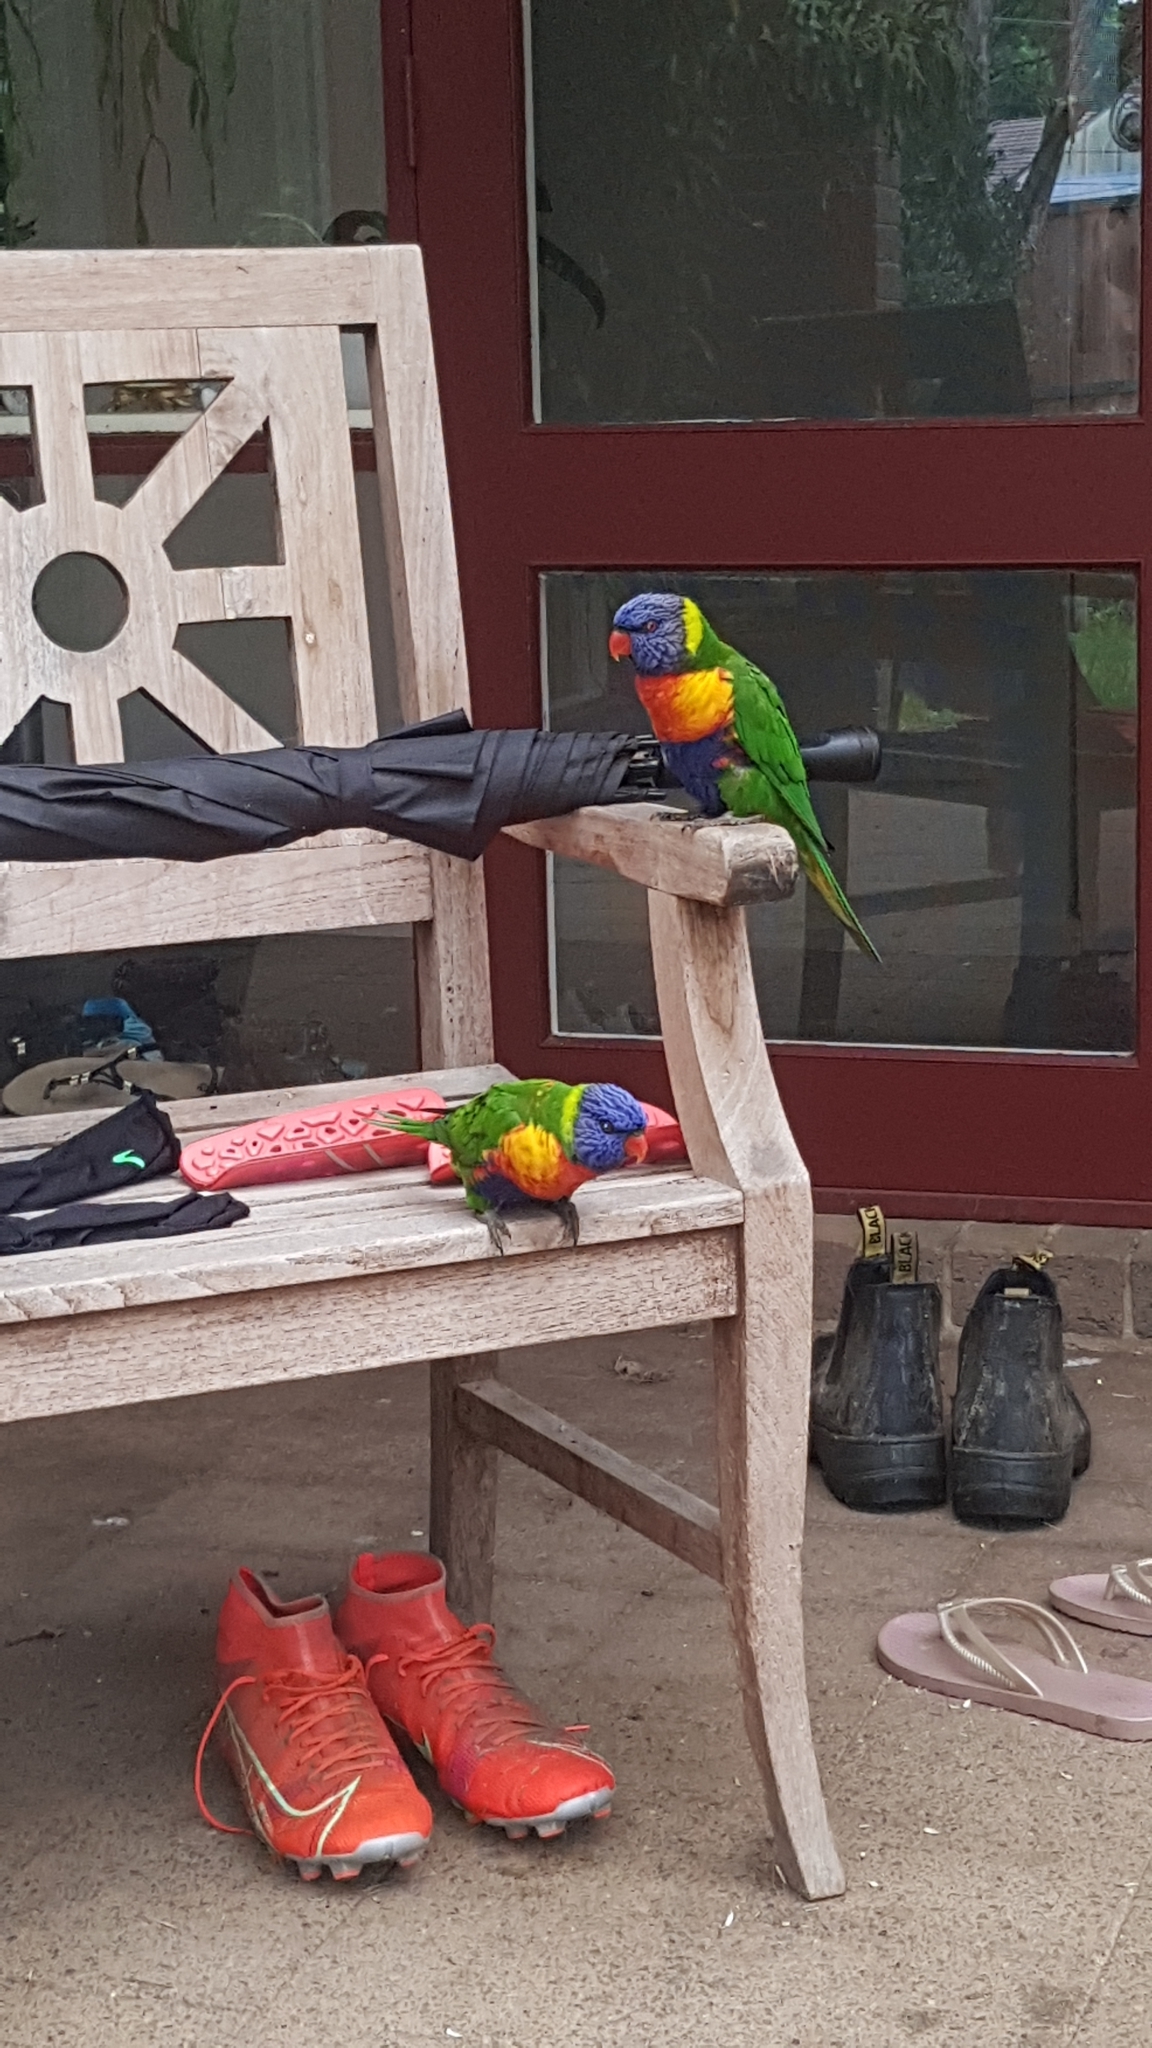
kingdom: Animalia
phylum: Chordata
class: Aves
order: Psittaciformes
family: Psittacidae
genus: Trichoglossus
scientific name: Trichoglossus haematodus
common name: Coconut lorikeet
